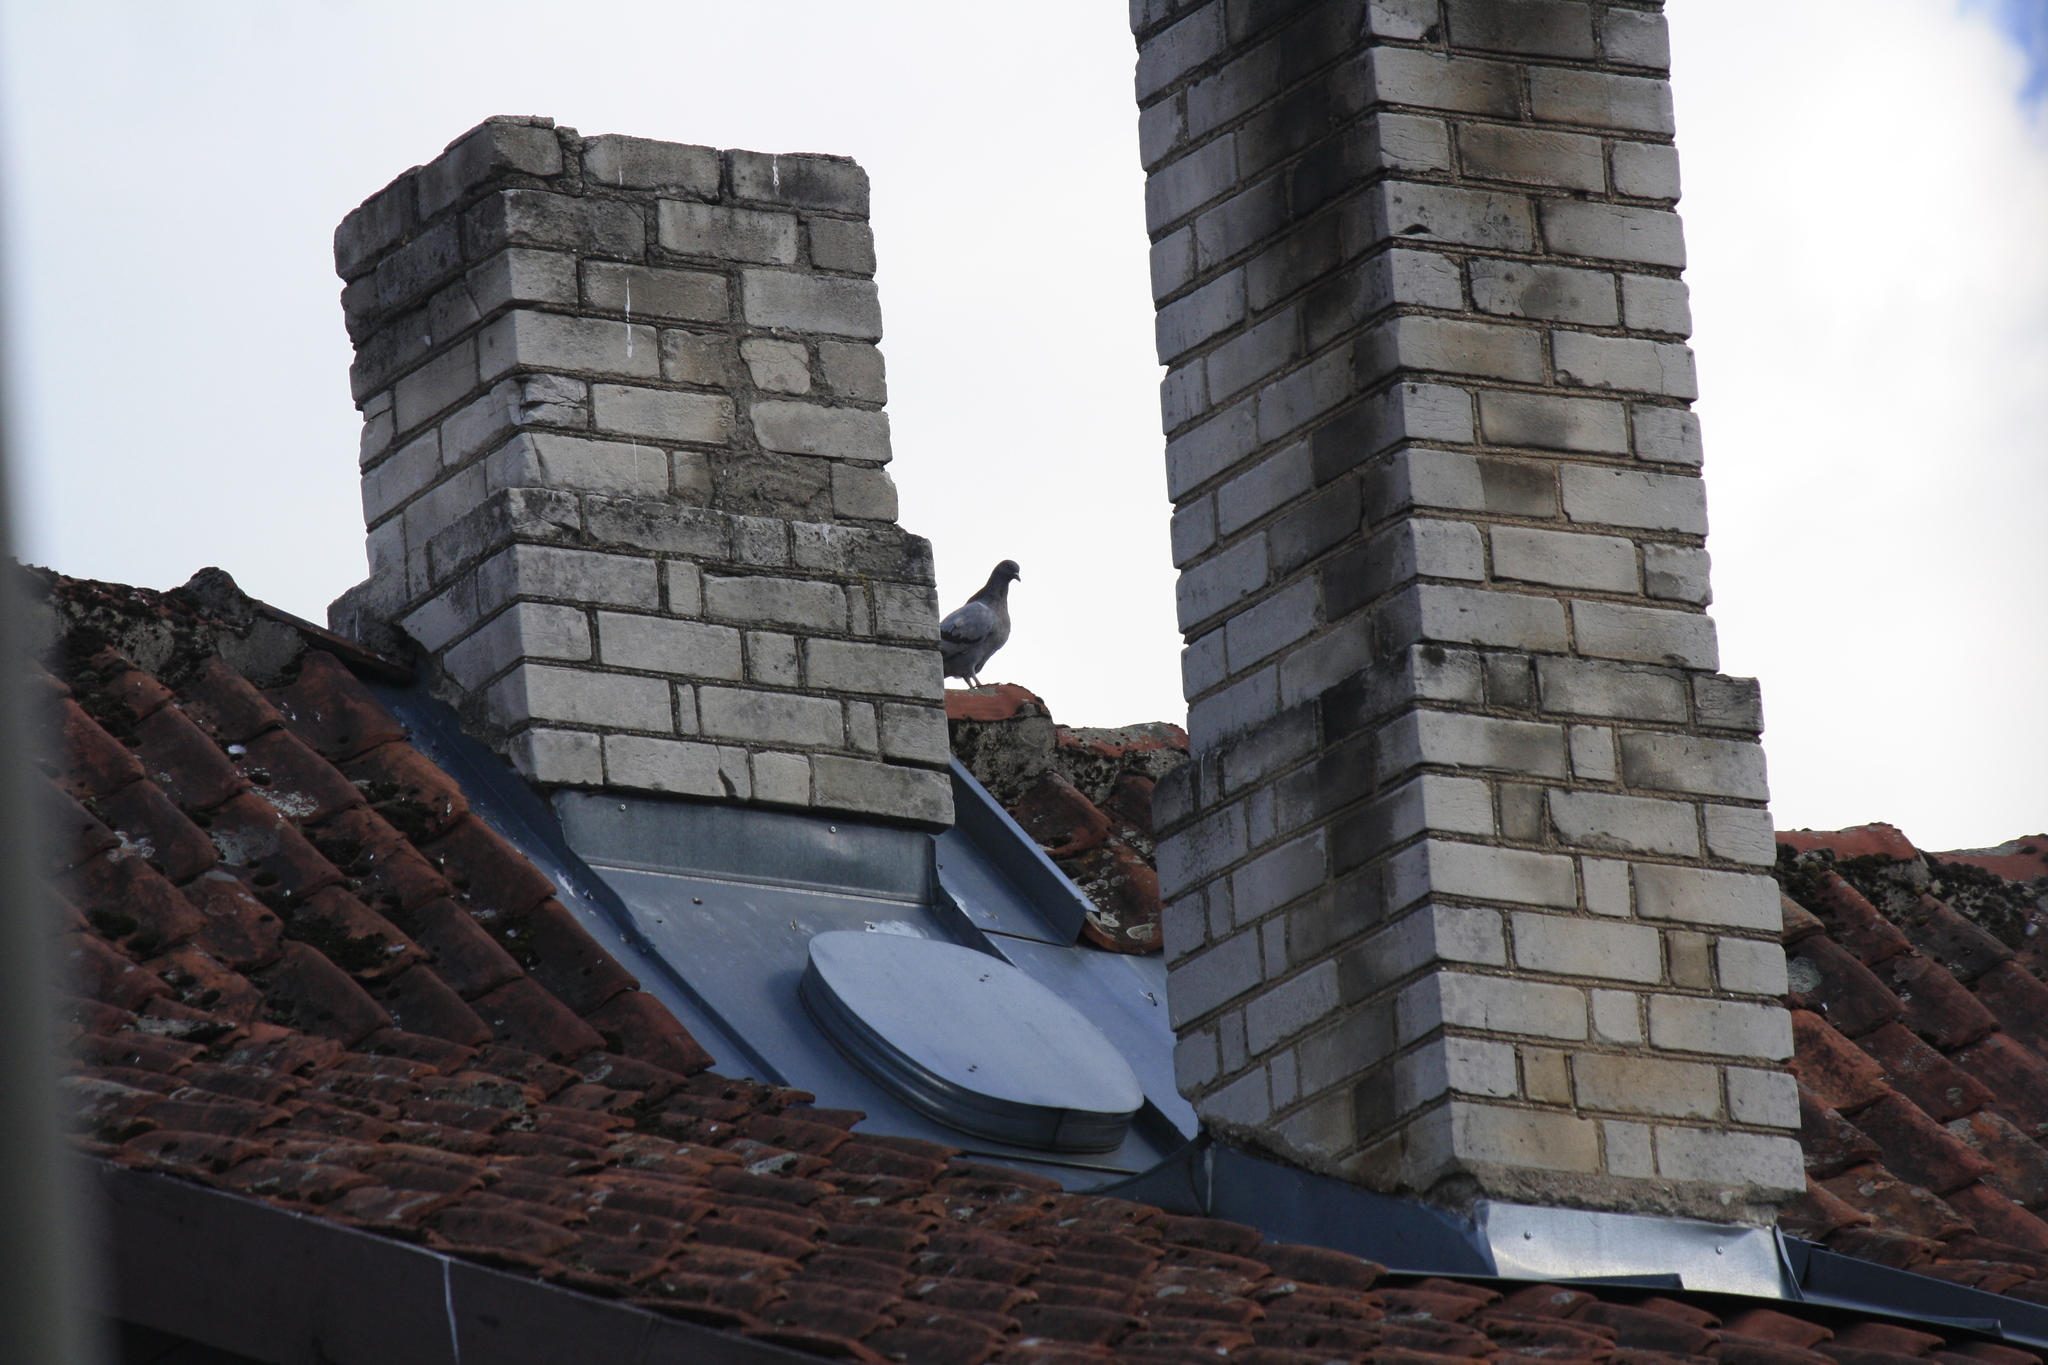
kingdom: Animalia
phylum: Chordata
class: Aves
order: Columbiformes
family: Columbidae
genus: Columba
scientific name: Columba livia
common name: Rock pigeon
